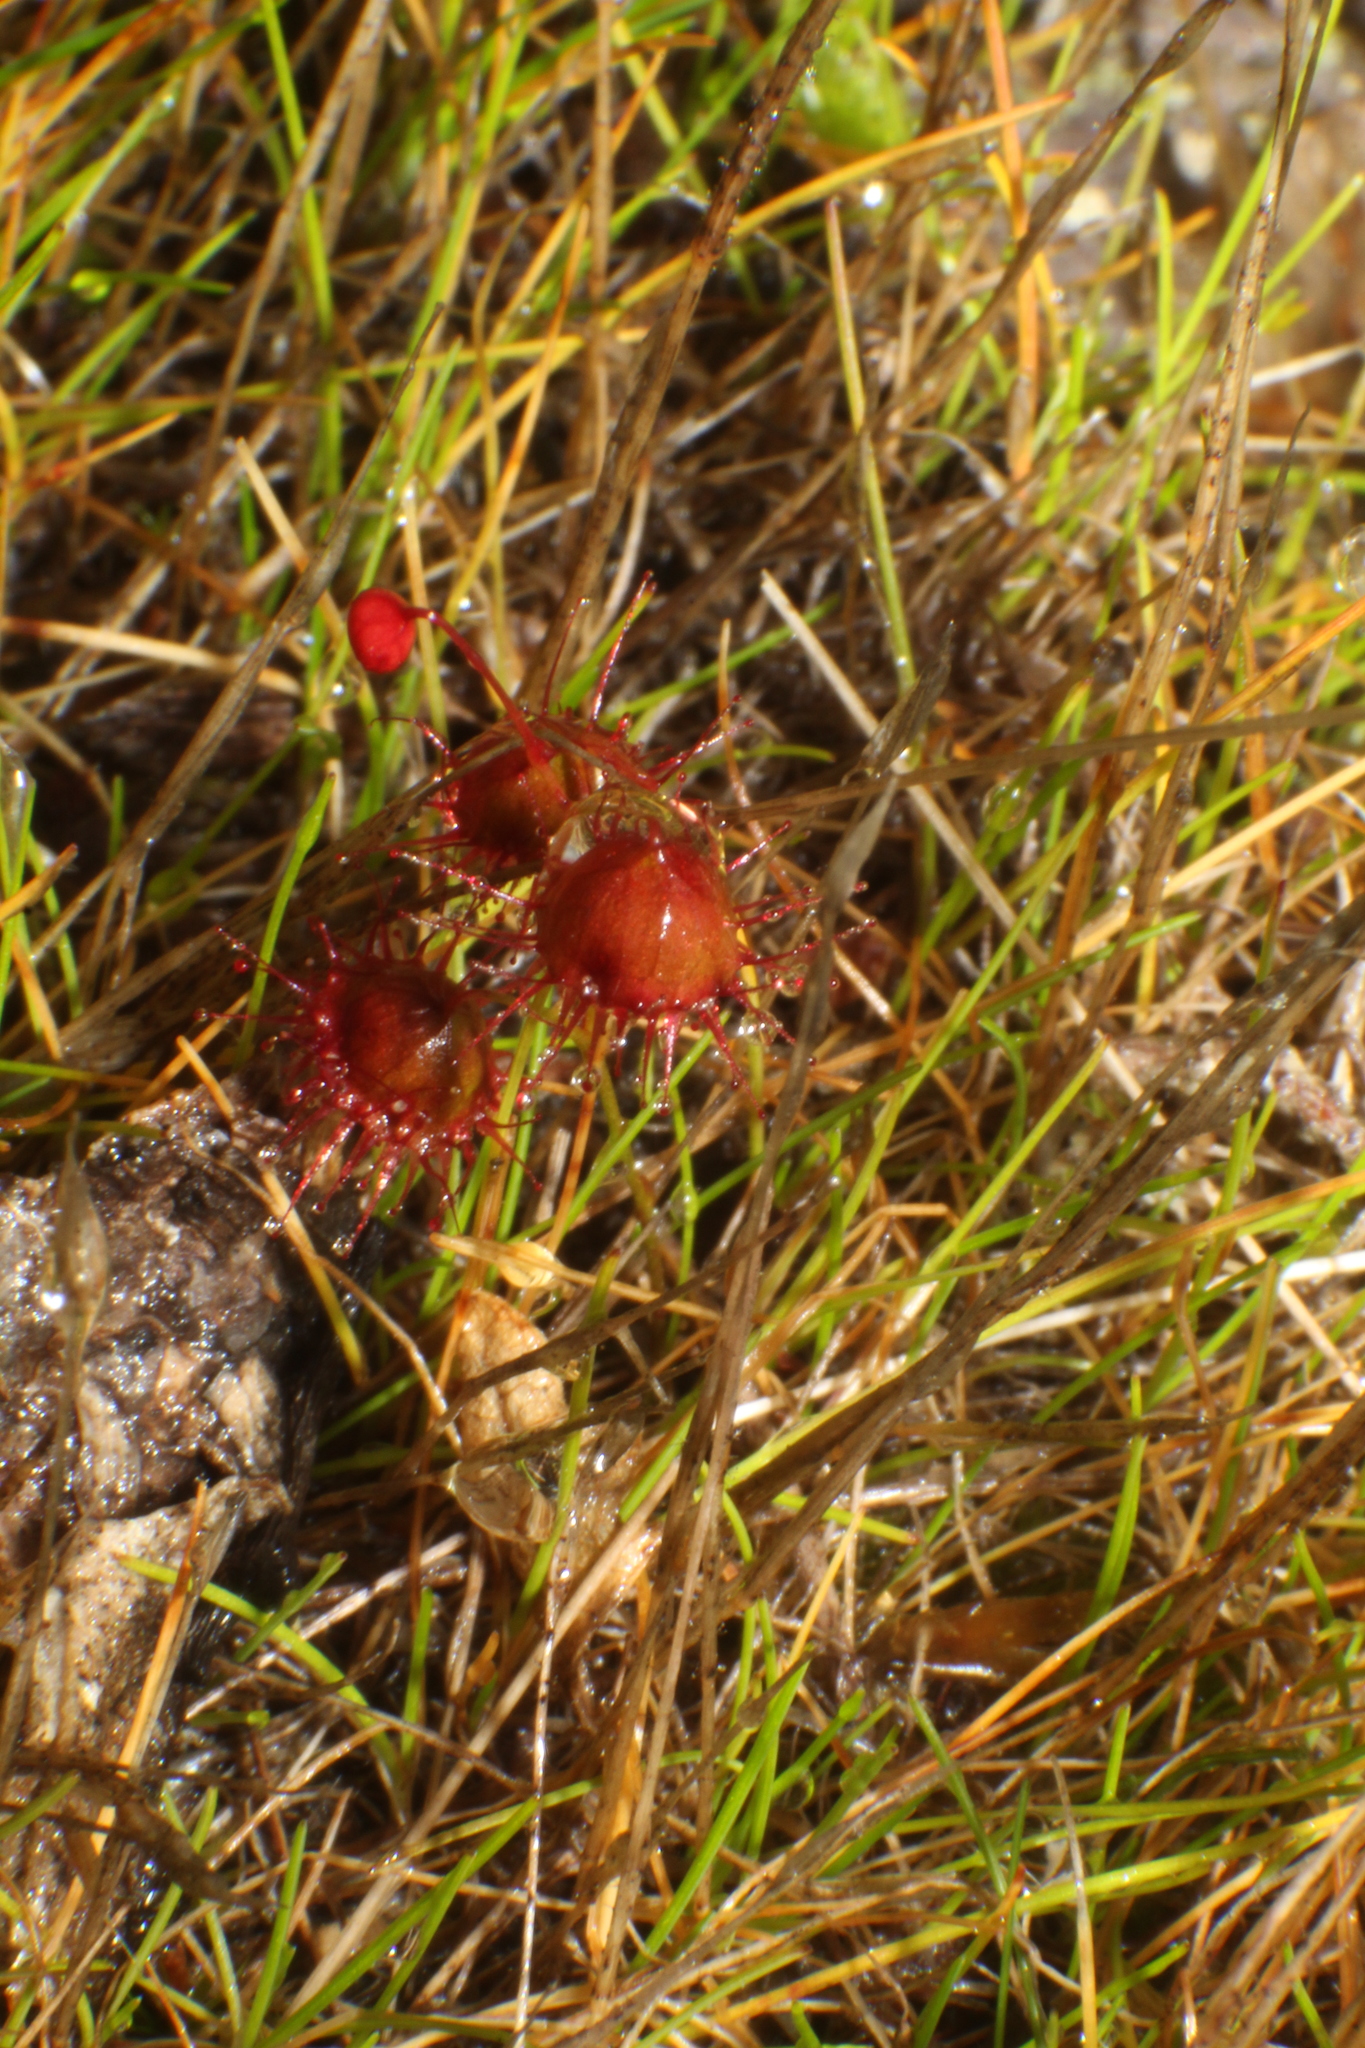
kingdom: Plantae
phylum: Tracheophyta
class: Magnoliopsida
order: Caryophyllales
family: Droseraceae
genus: Drosera
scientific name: Drosera huegelii
